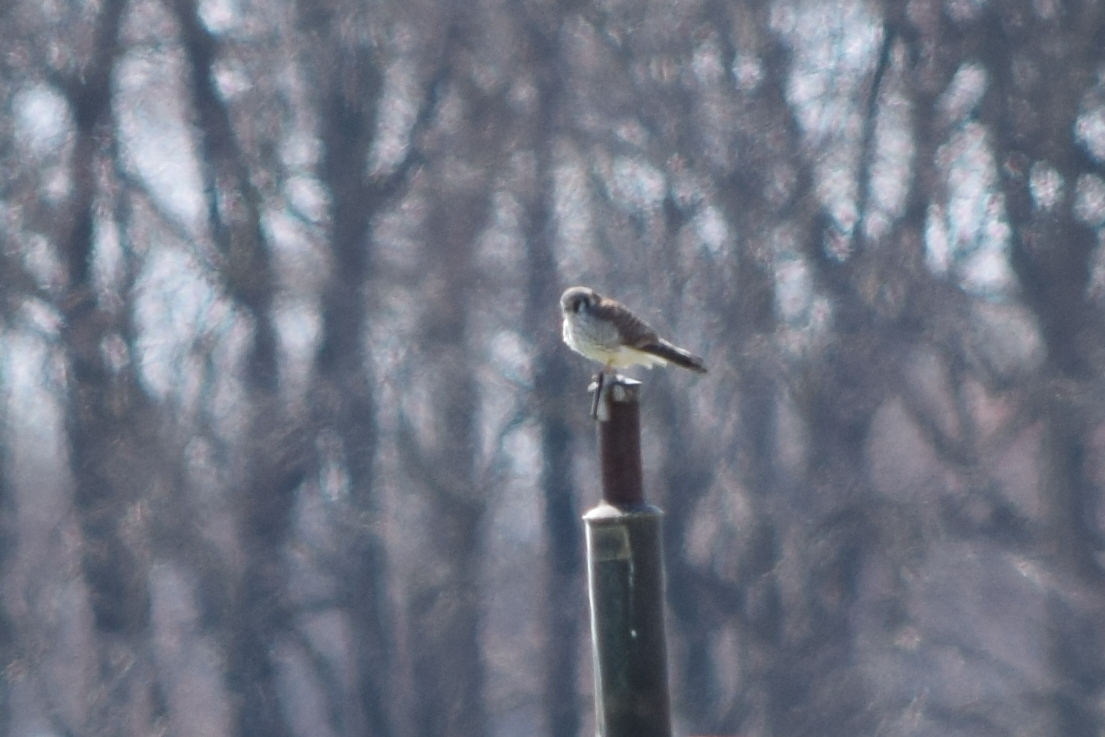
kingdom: Animalia
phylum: Chordata
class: Aves
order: Falconiformes
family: Falconidae
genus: Falco
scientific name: Falco sparverius
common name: American kestrel
